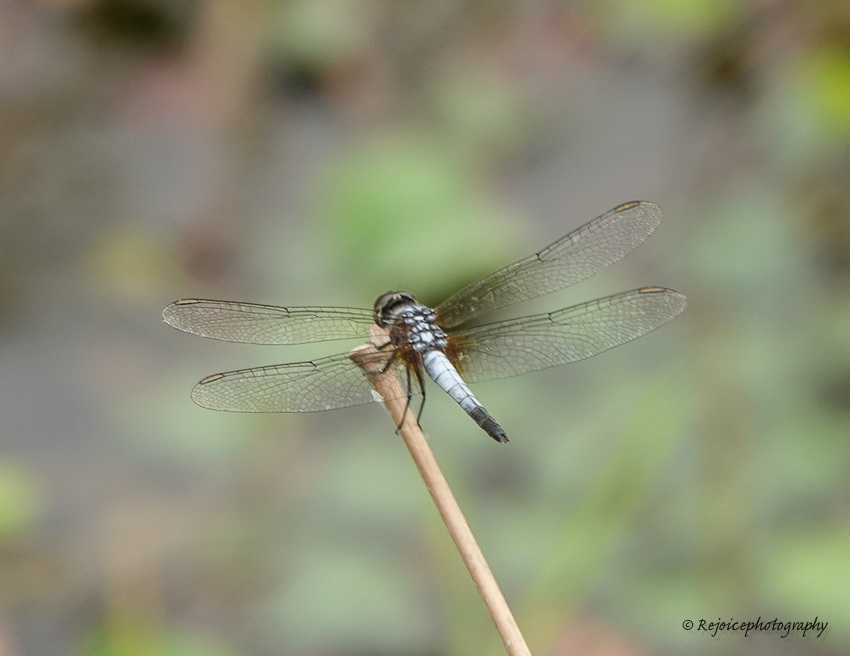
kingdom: Animalia
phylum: Arthropoda
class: Insecta
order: Odonata
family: Libellulidae
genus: Brachydiplax
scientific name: Brachydiplax chalybea
